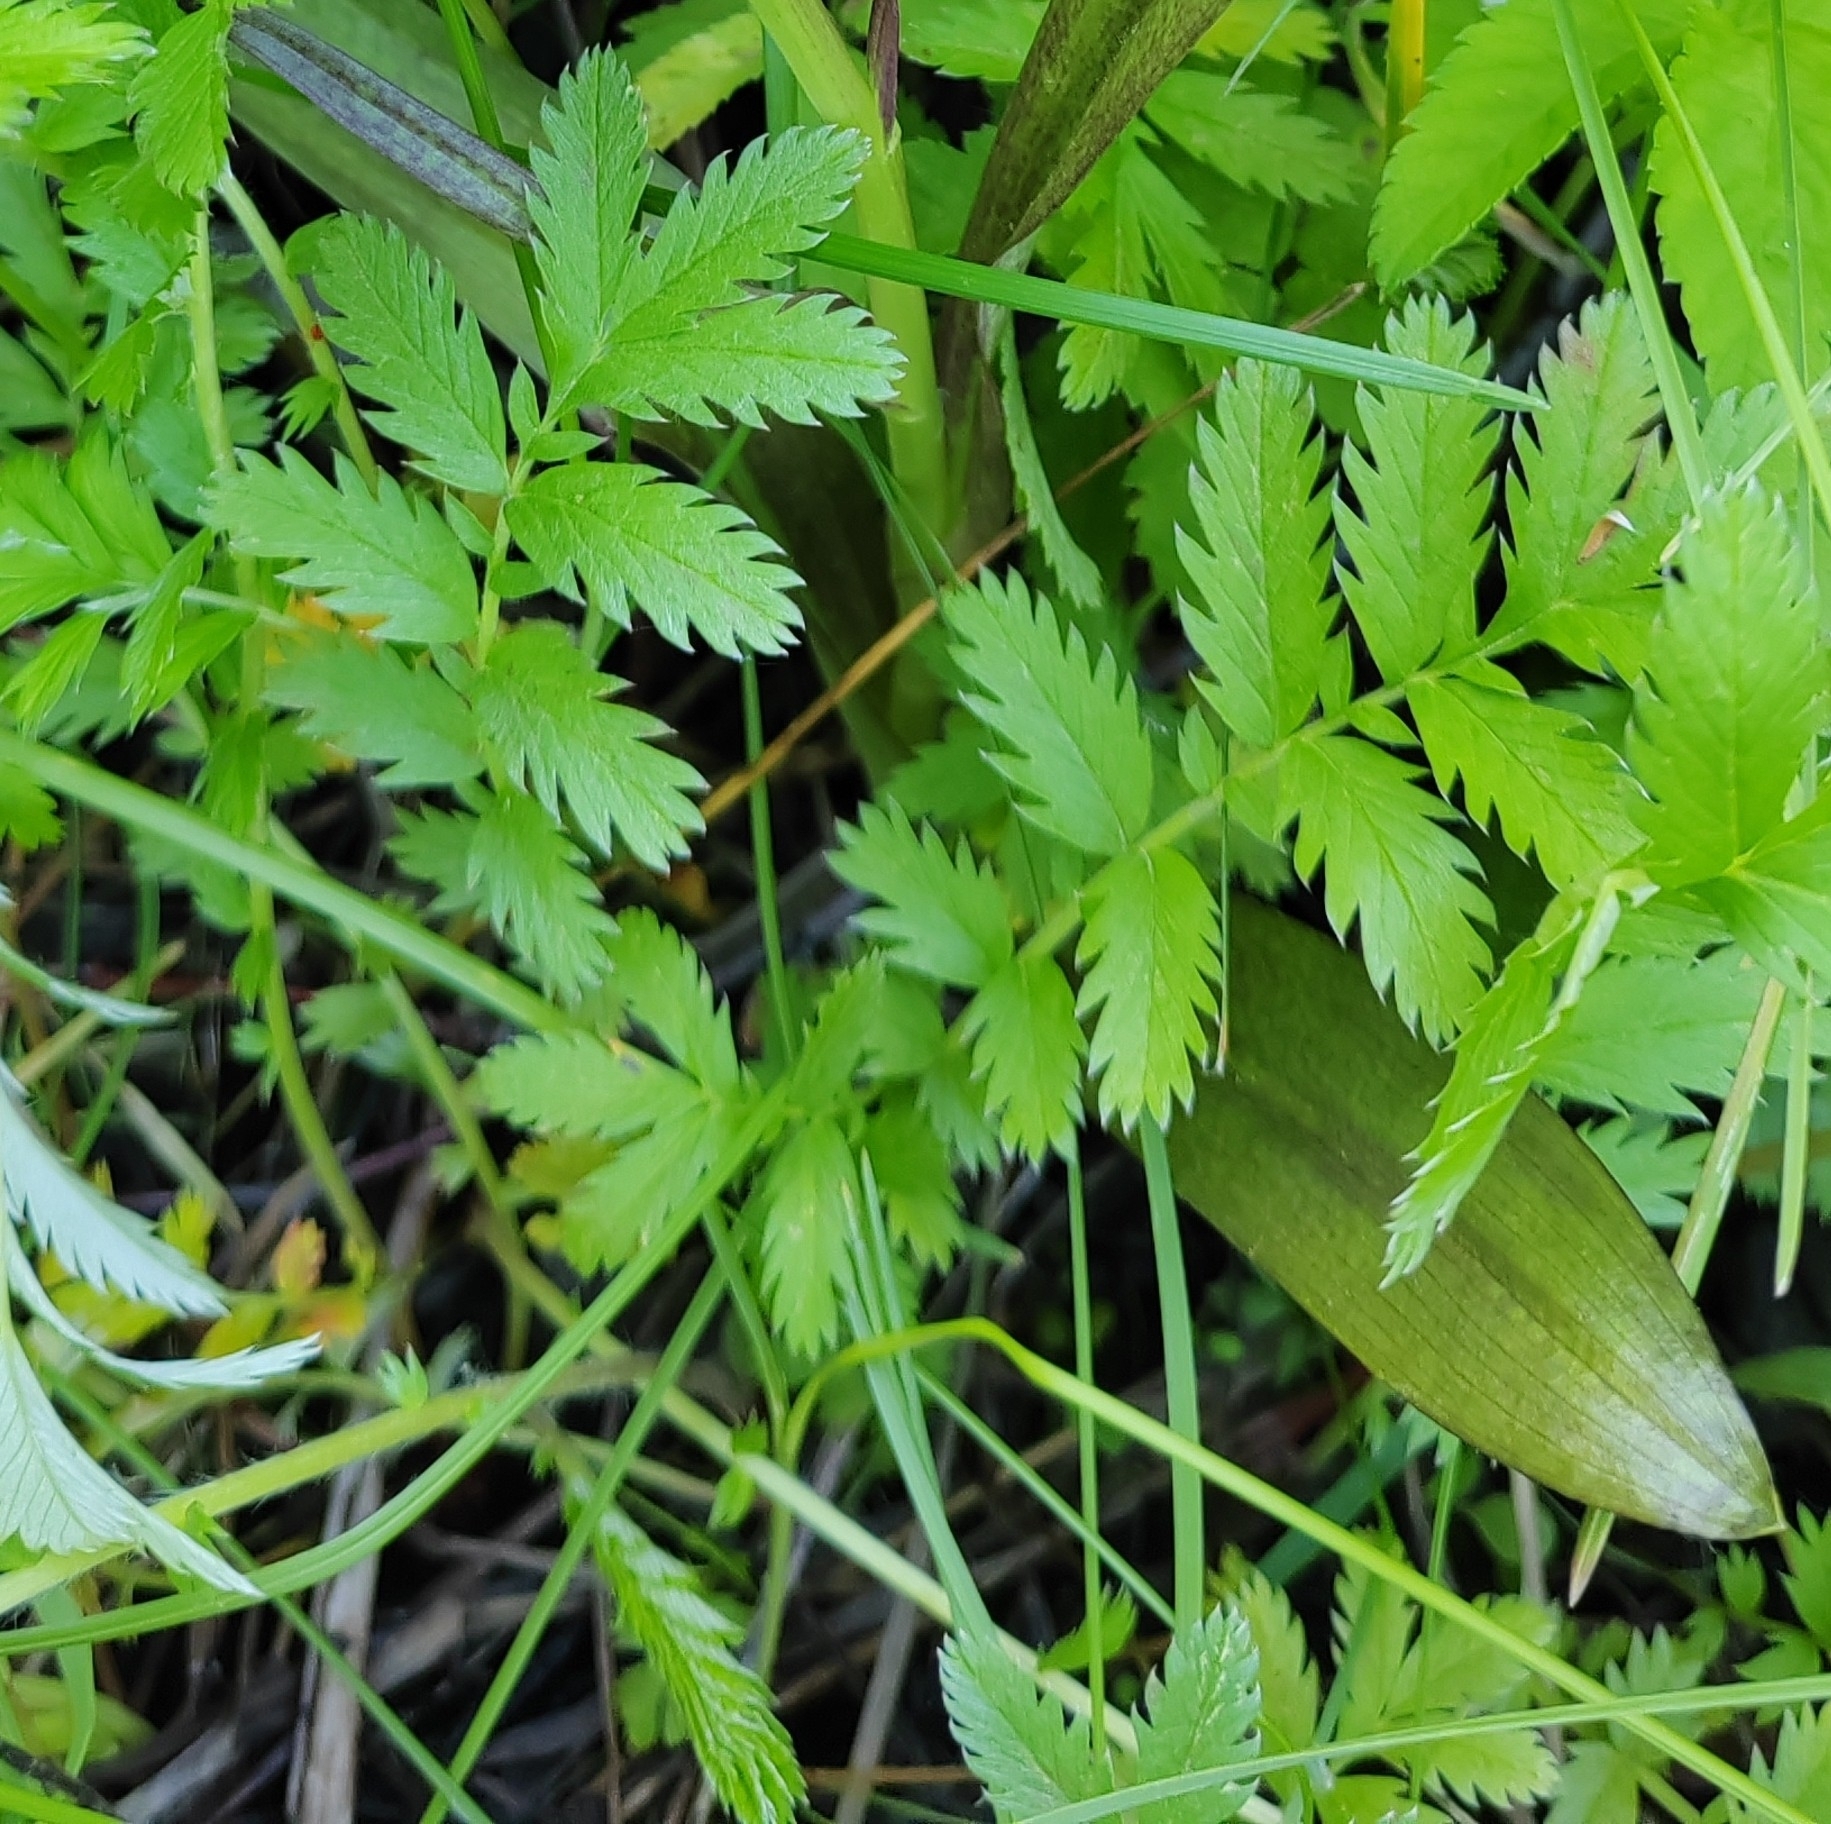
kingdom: Plantae
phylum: Tracheophyta
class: Magnoliopsida
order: Rosales
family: Rosaceae
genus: Argentina
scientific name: Argentina anserina
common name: Common silverweed
